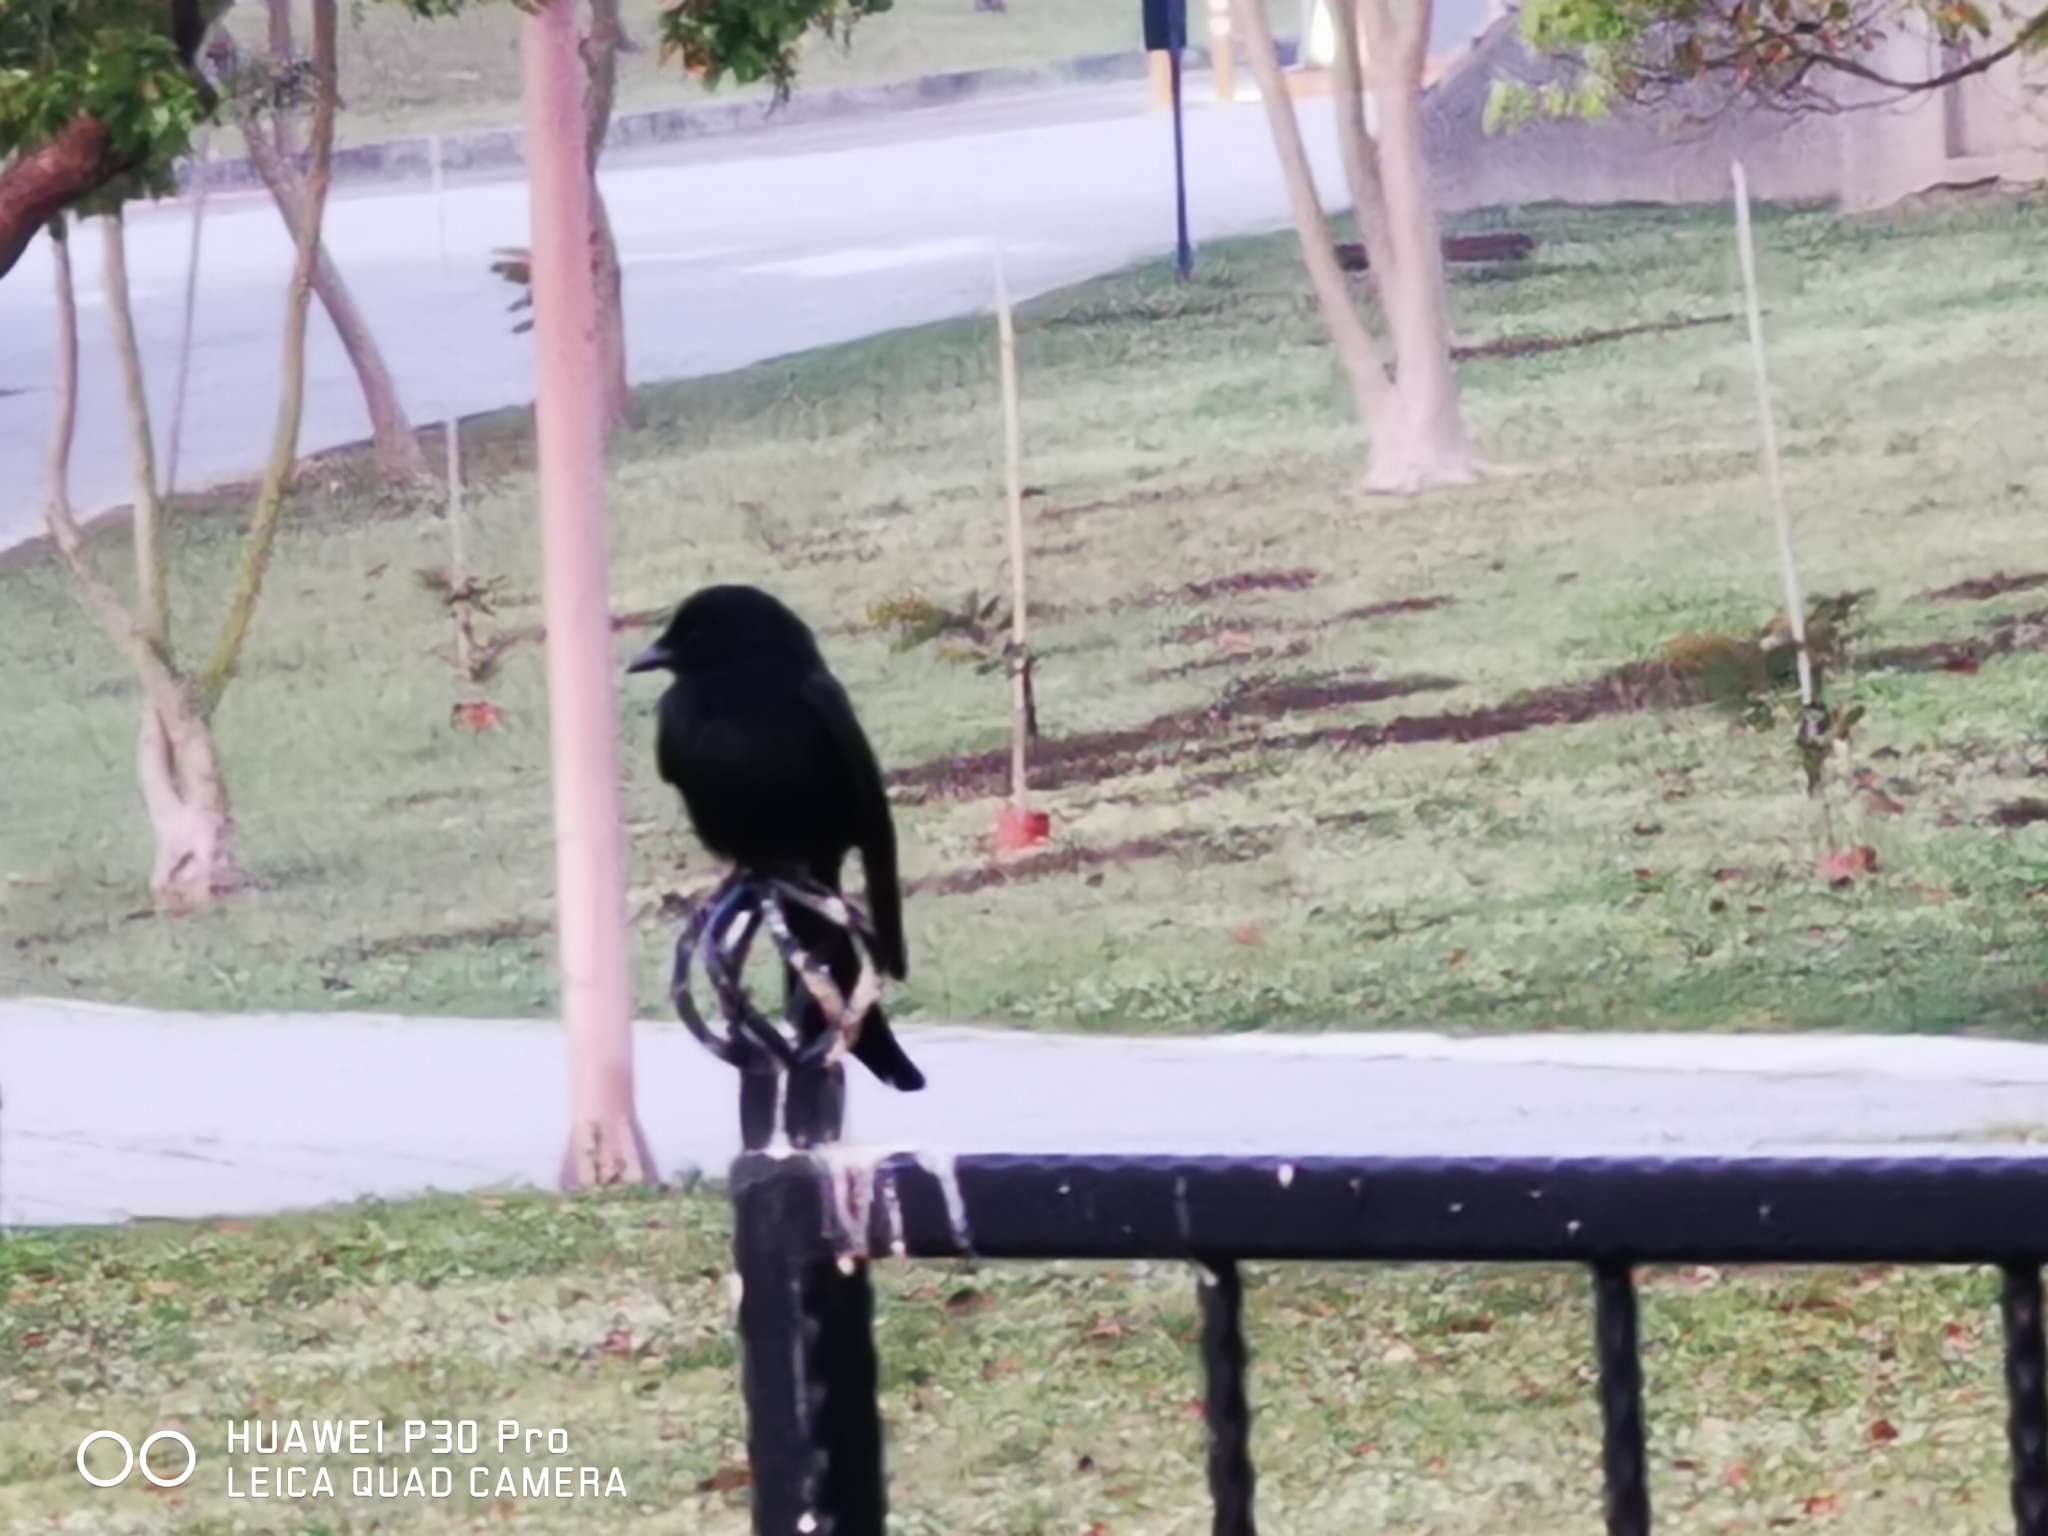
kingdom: Animalia
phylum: Chordata
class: Aves
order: Passeriformes
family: Dicruridae
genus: Dicrurus
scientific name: Dicrurus macrocercus
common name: Black drongo
